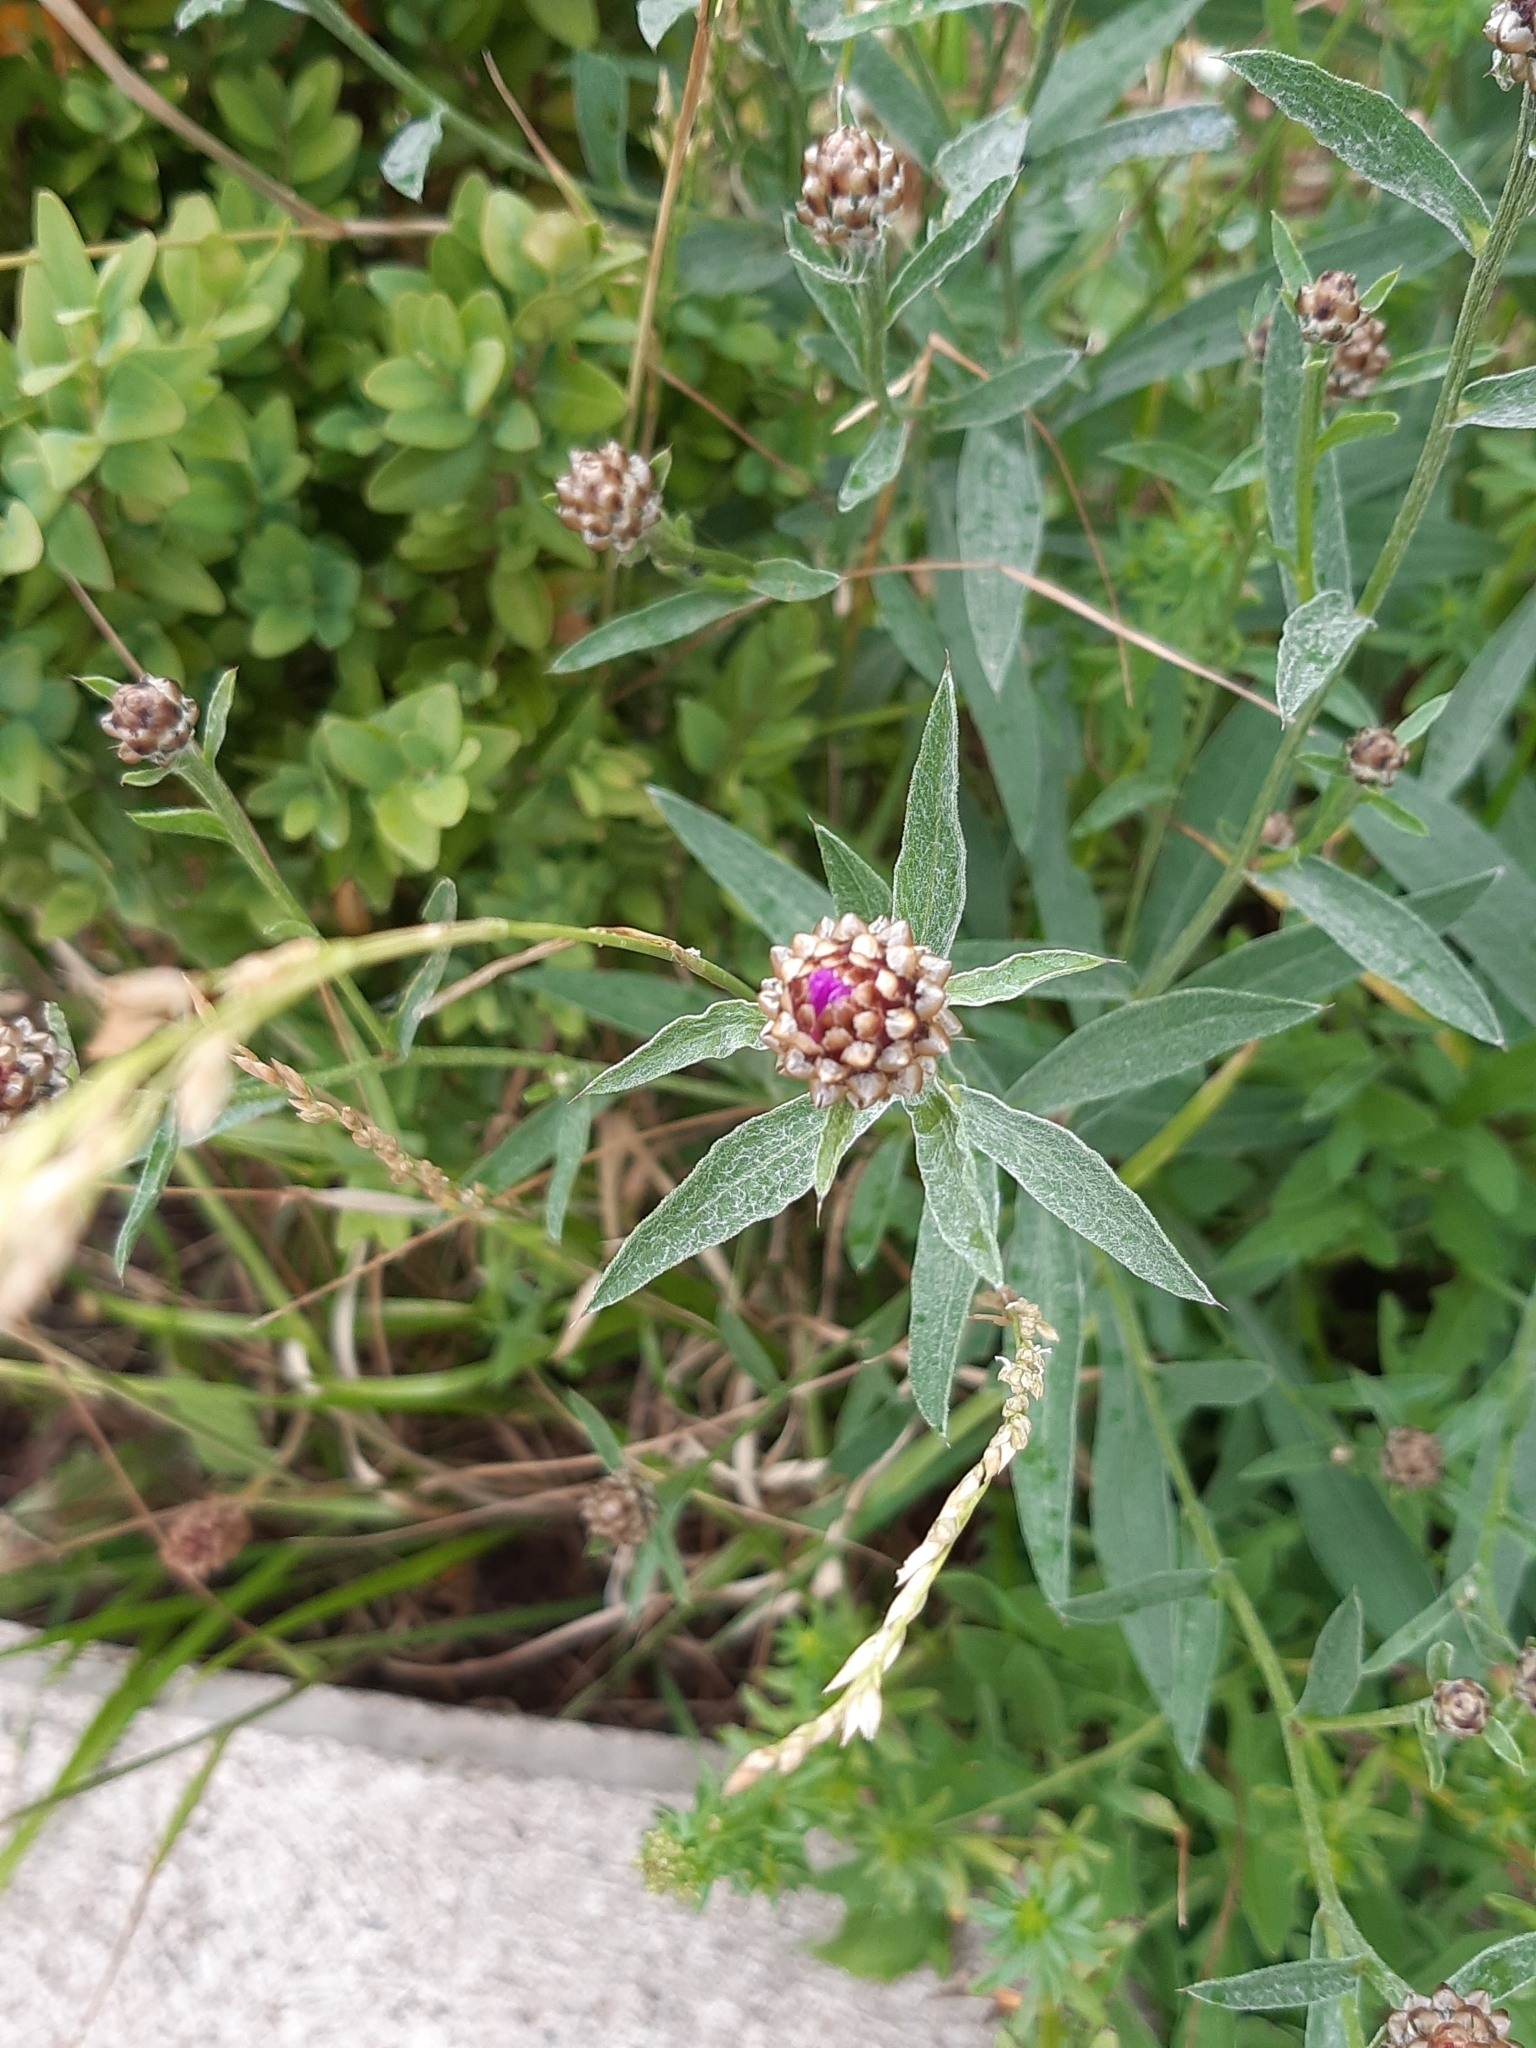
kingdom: Plantae
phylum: Tracheophyta
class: Magnoliopsida
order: Asterales
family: Asteraceae
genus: Centaurea
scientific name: Centaurea jacea
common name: Brown knapweed
